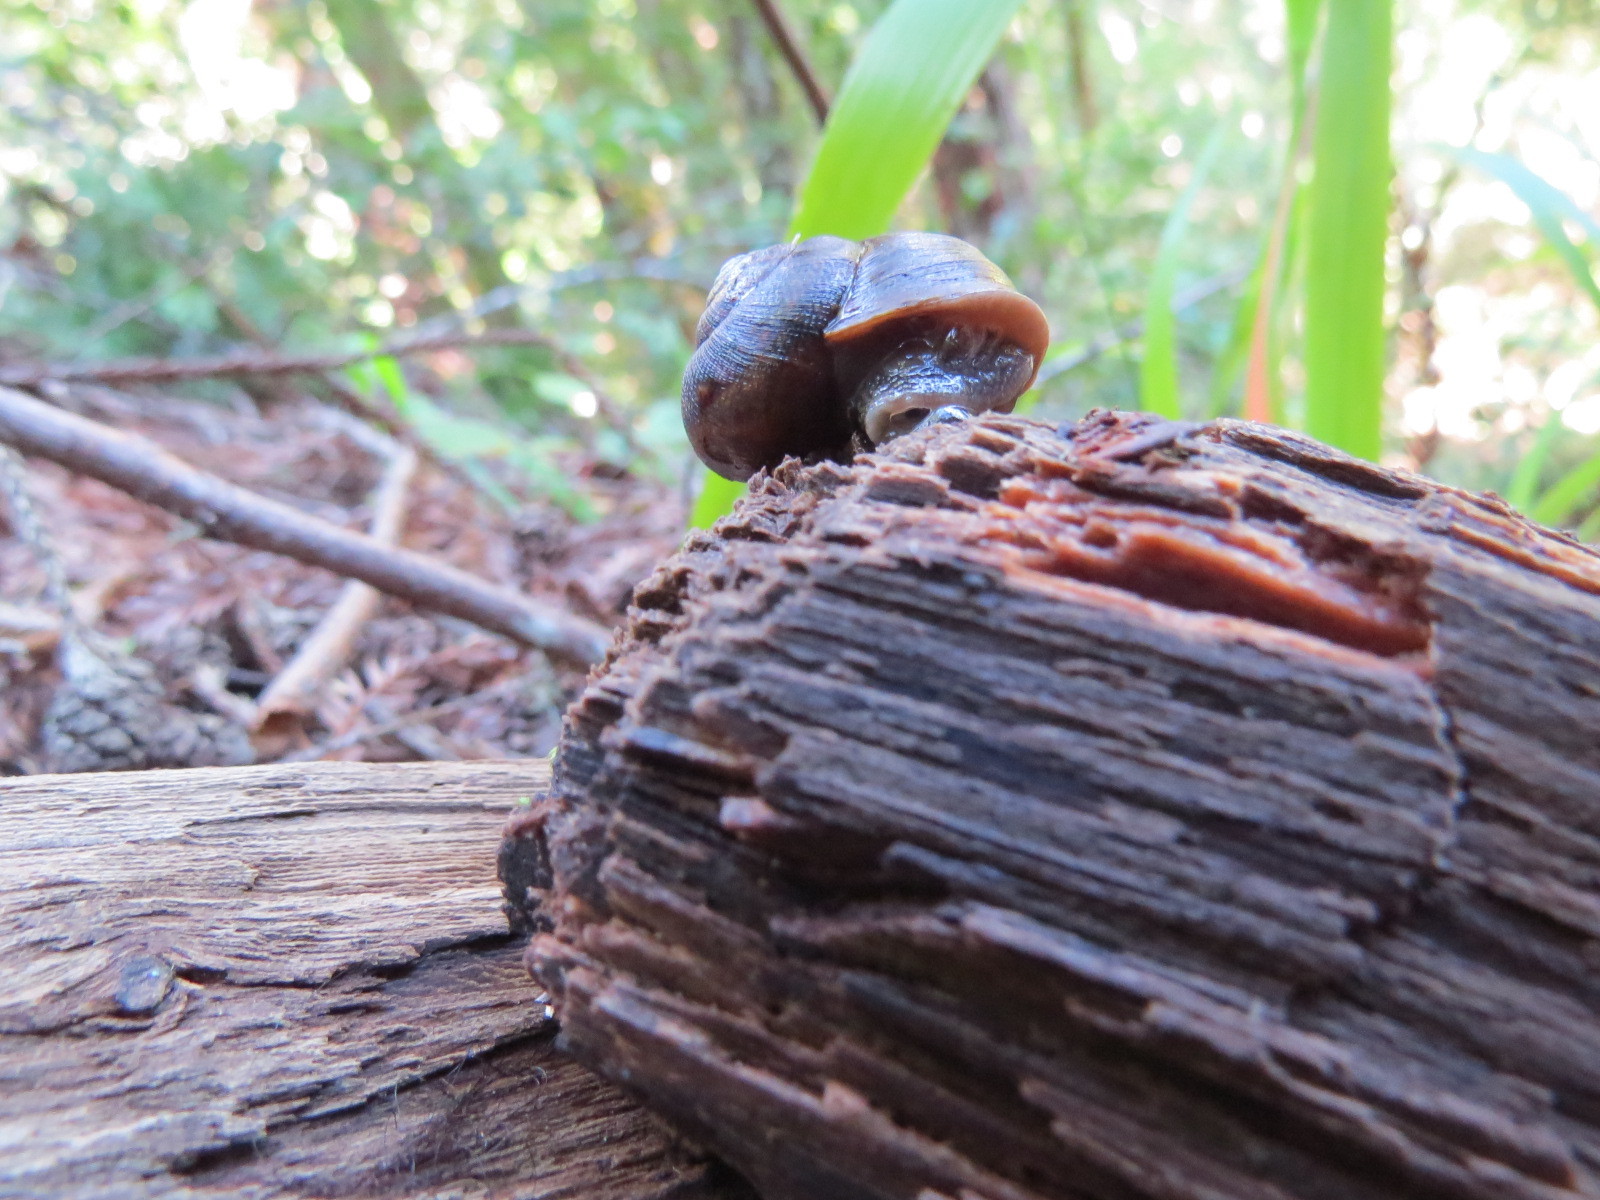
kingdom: Animalia
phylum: Mollusca
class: Gastropoda
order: Stylommatophora
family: Xanthonychidae
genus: Helminthoglypta
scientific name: Helminthoglypta nickliniana
